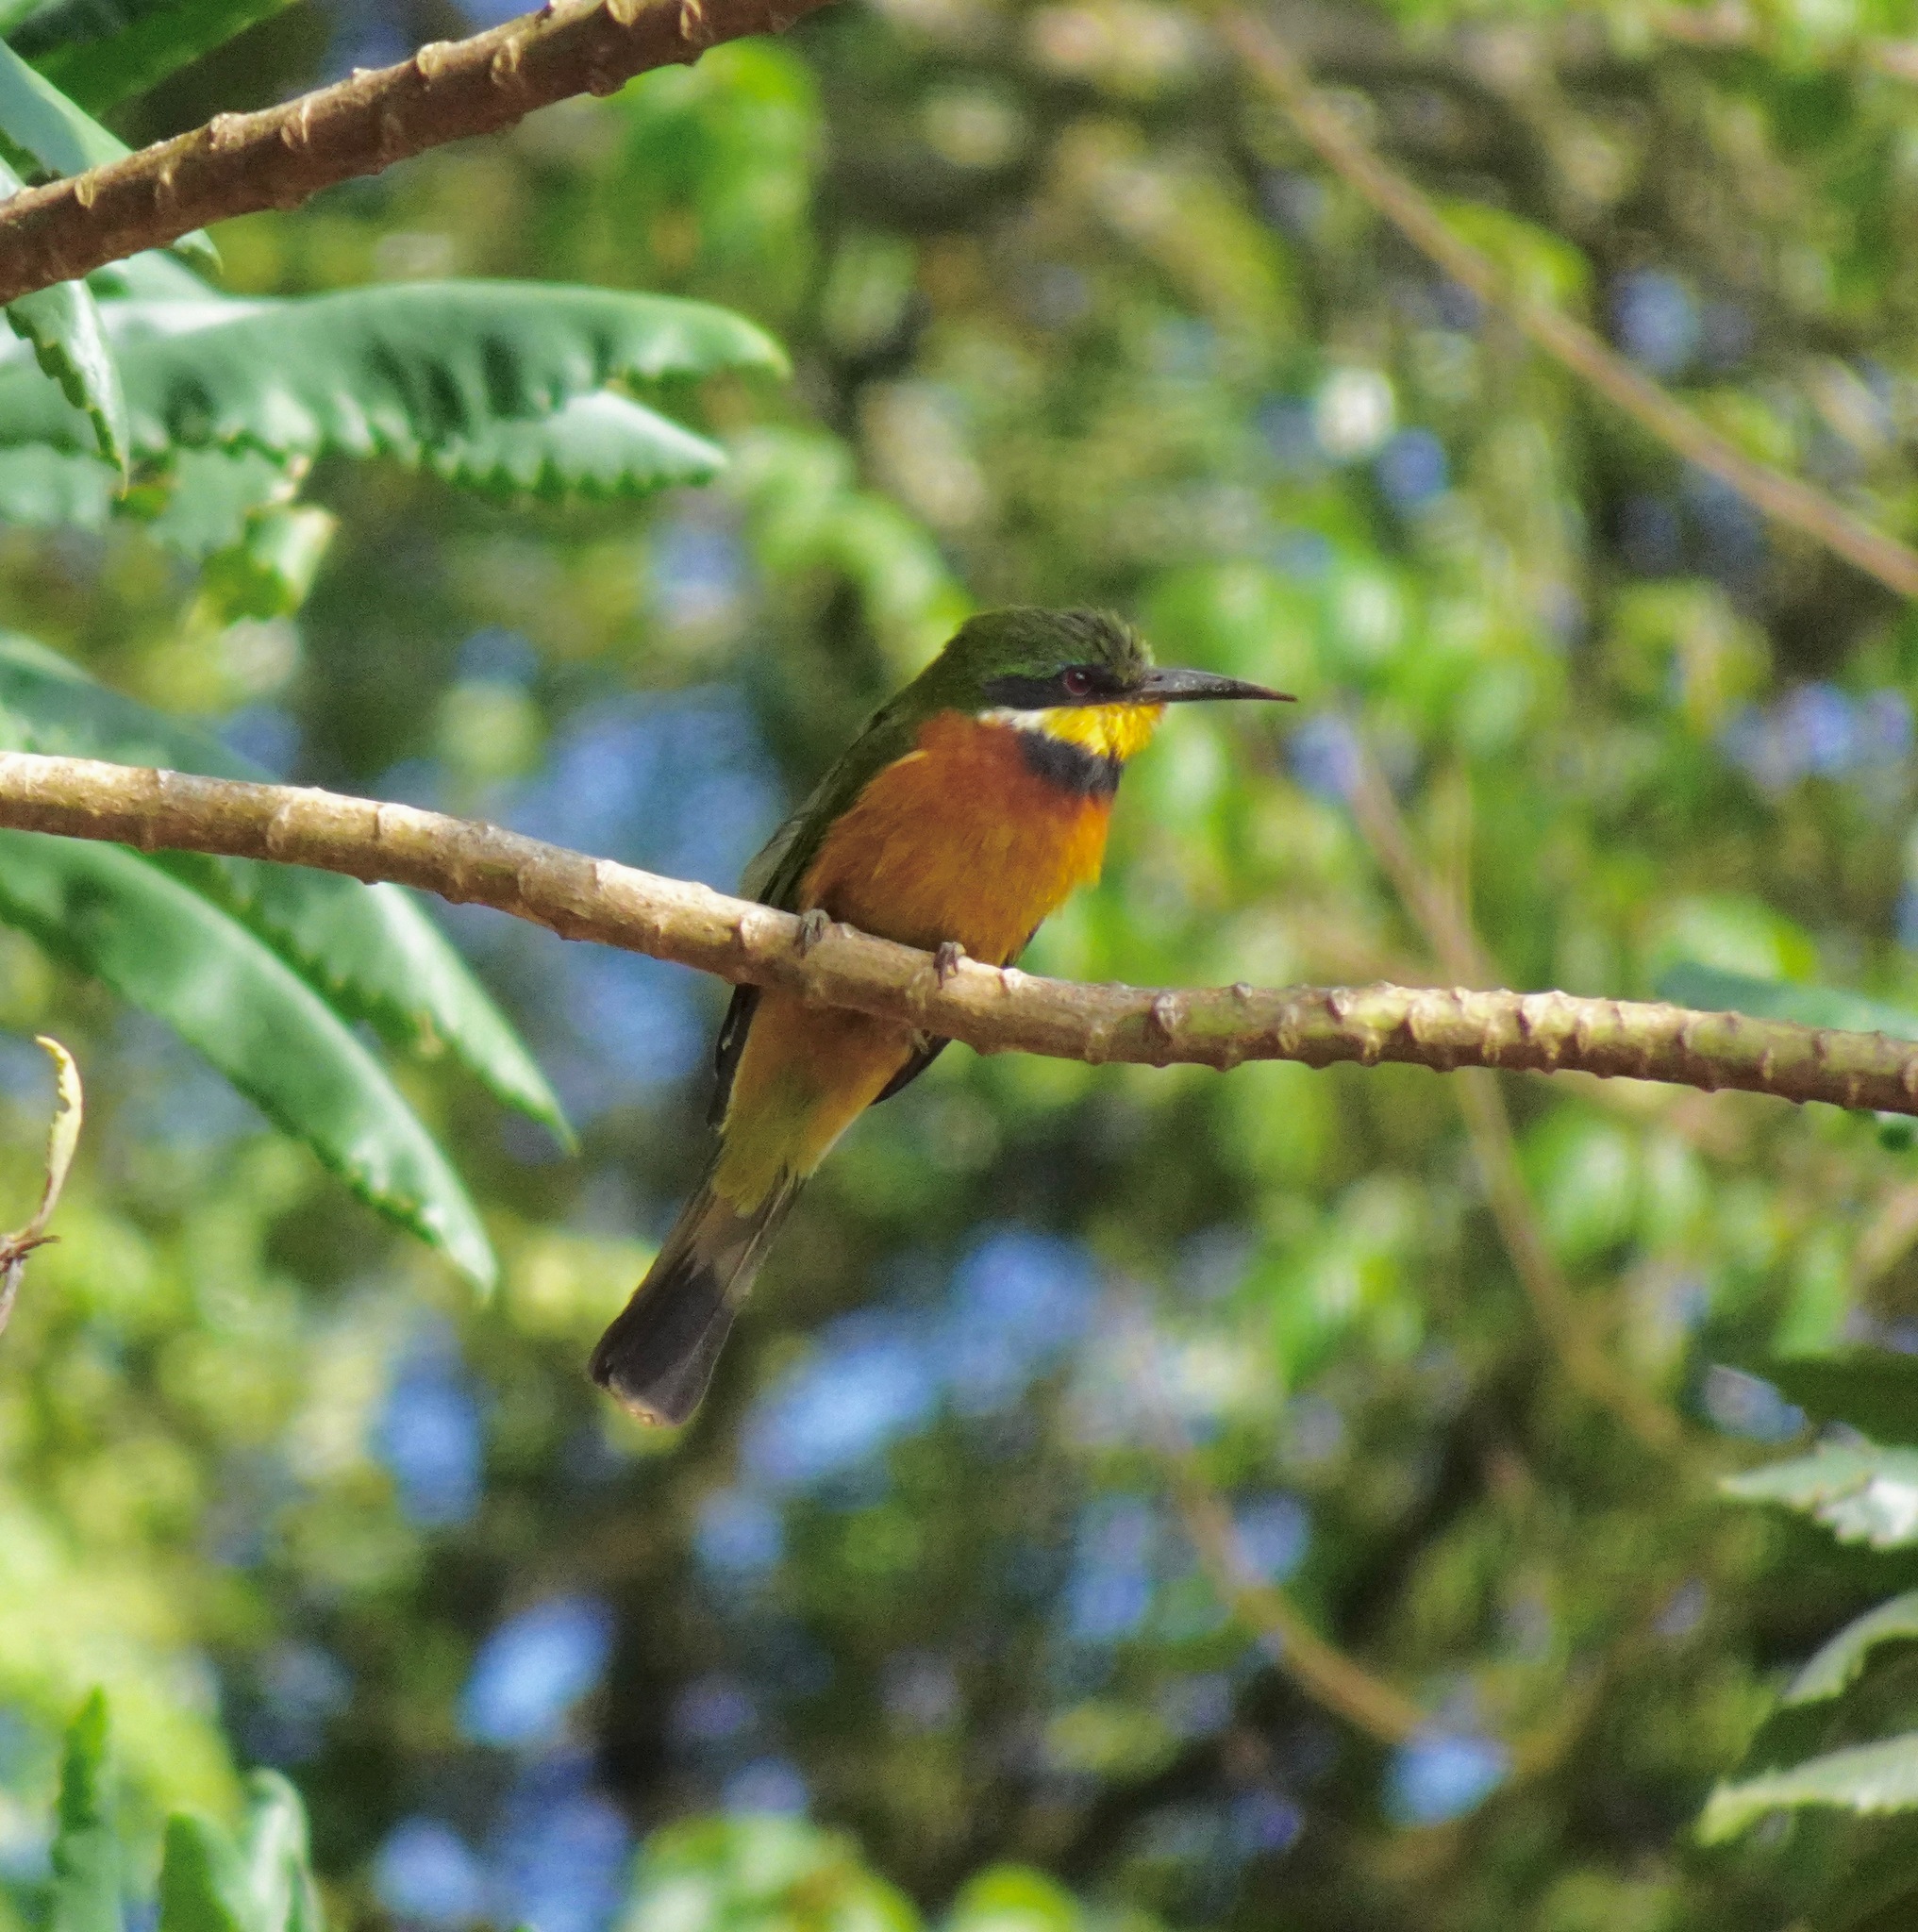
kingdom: Animalia
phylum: Chordata
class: Aves
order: Coraciiformes
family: Meropidae
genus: Merops
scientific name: Merops oreobates
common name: Cinnamon-chested bee-eater
